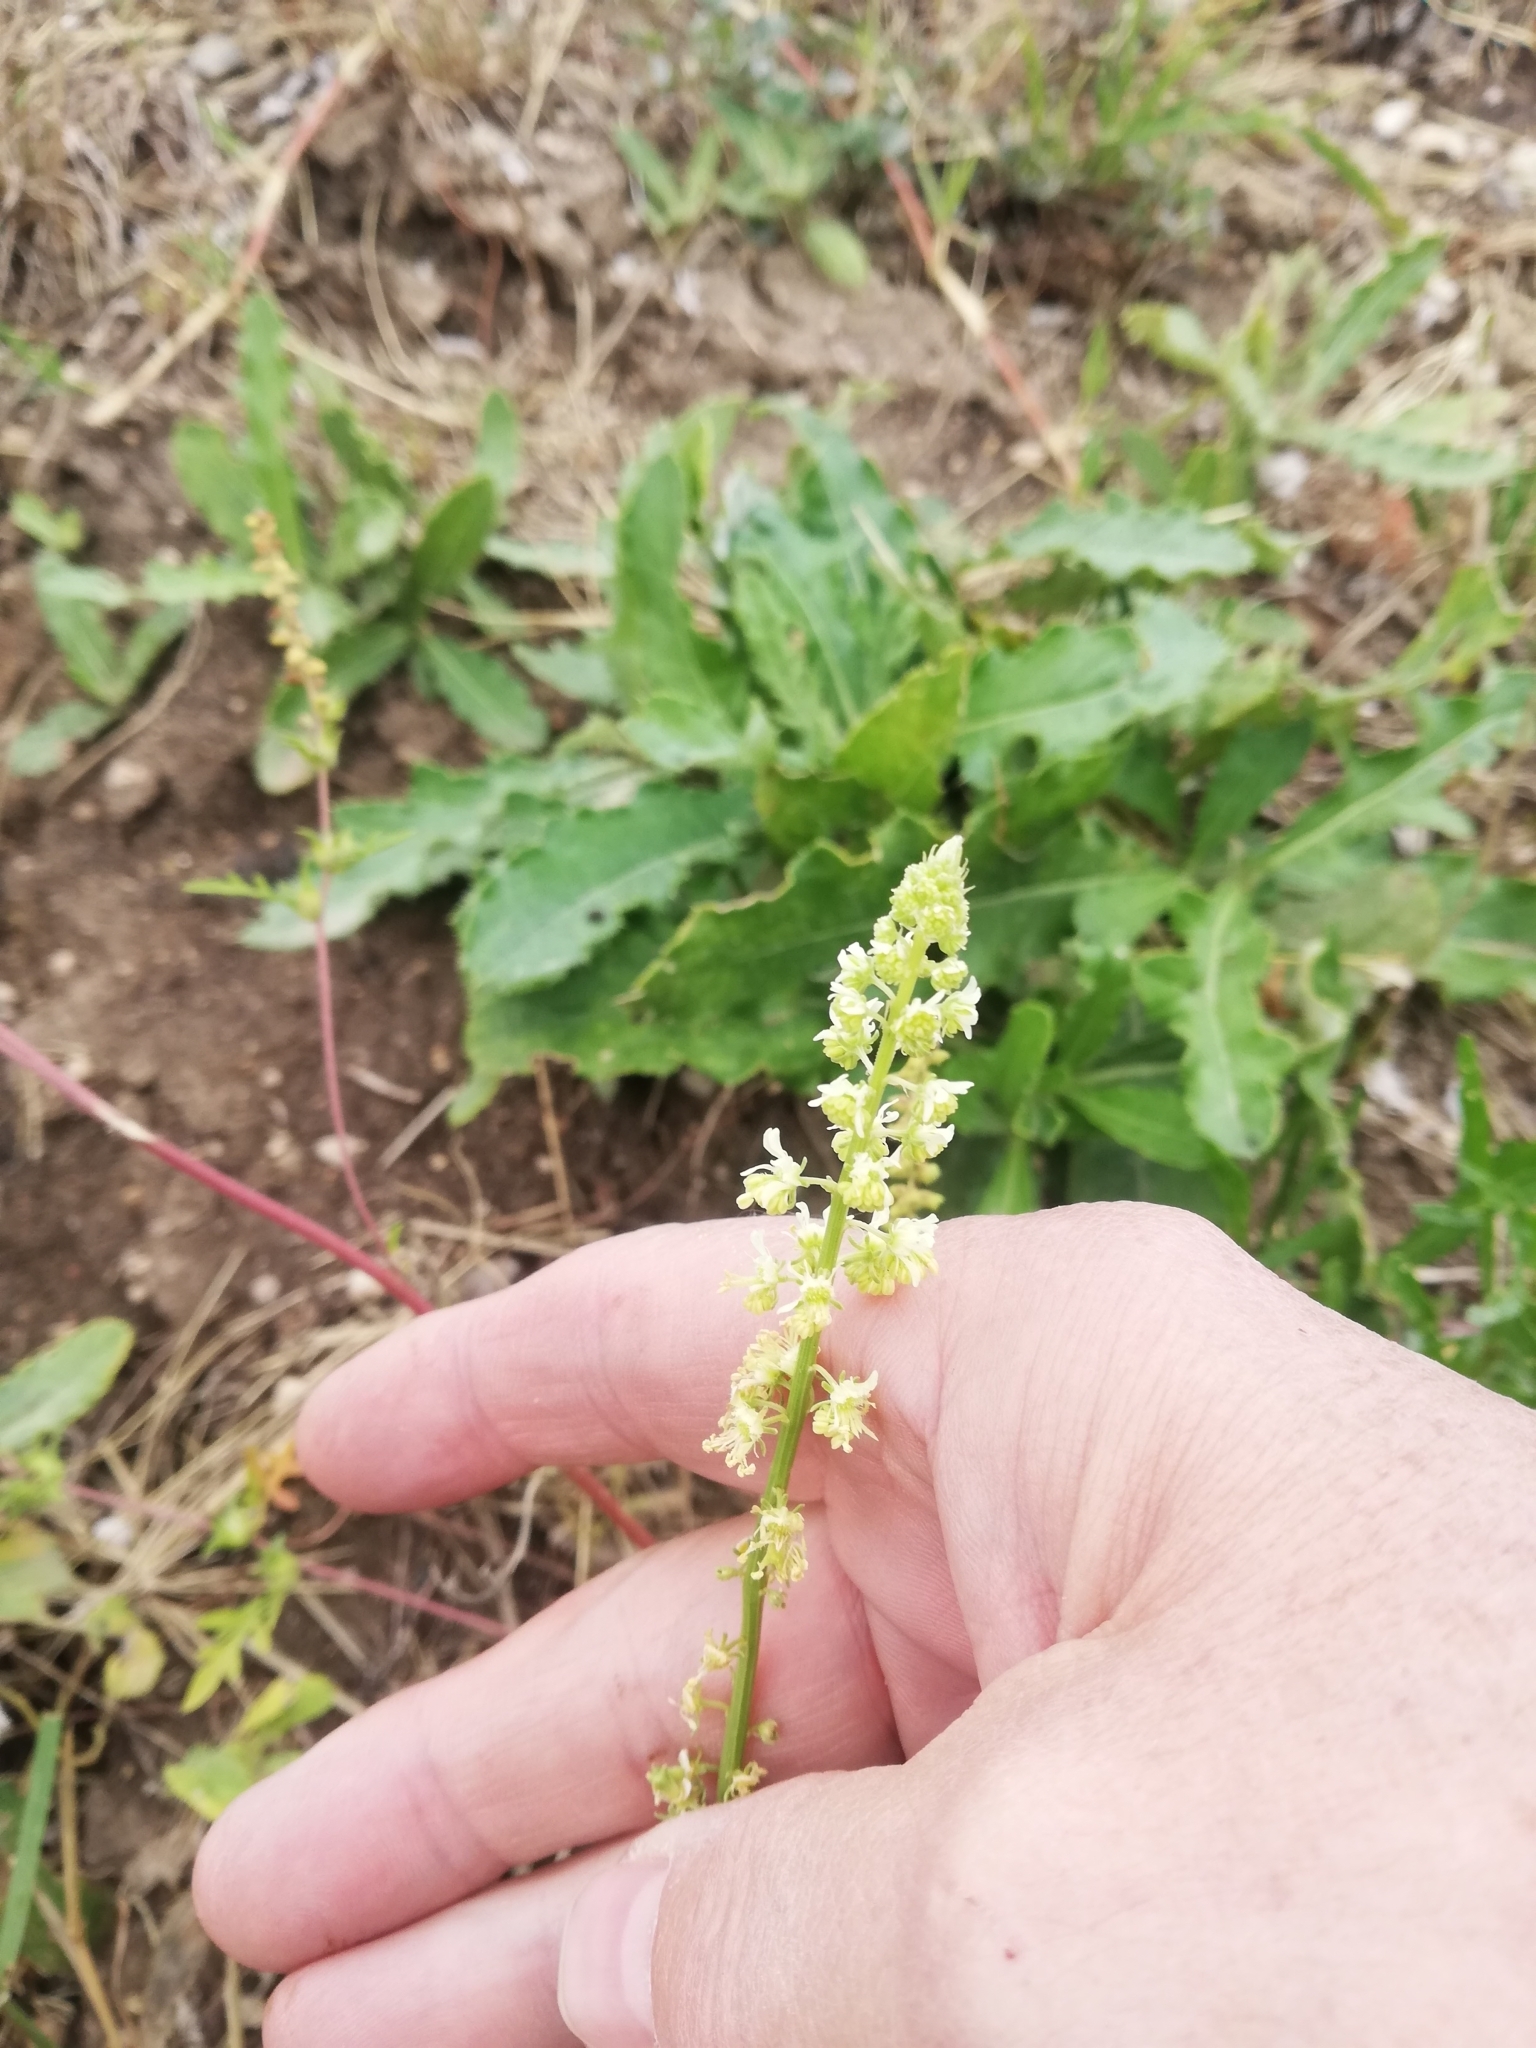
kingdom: Plantae
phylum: Tracheophyta
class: Magnoliopsida
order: Brassicales
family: Resedaceae
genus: Reseda
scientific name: Reseda lutea
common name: Wild mignonette
